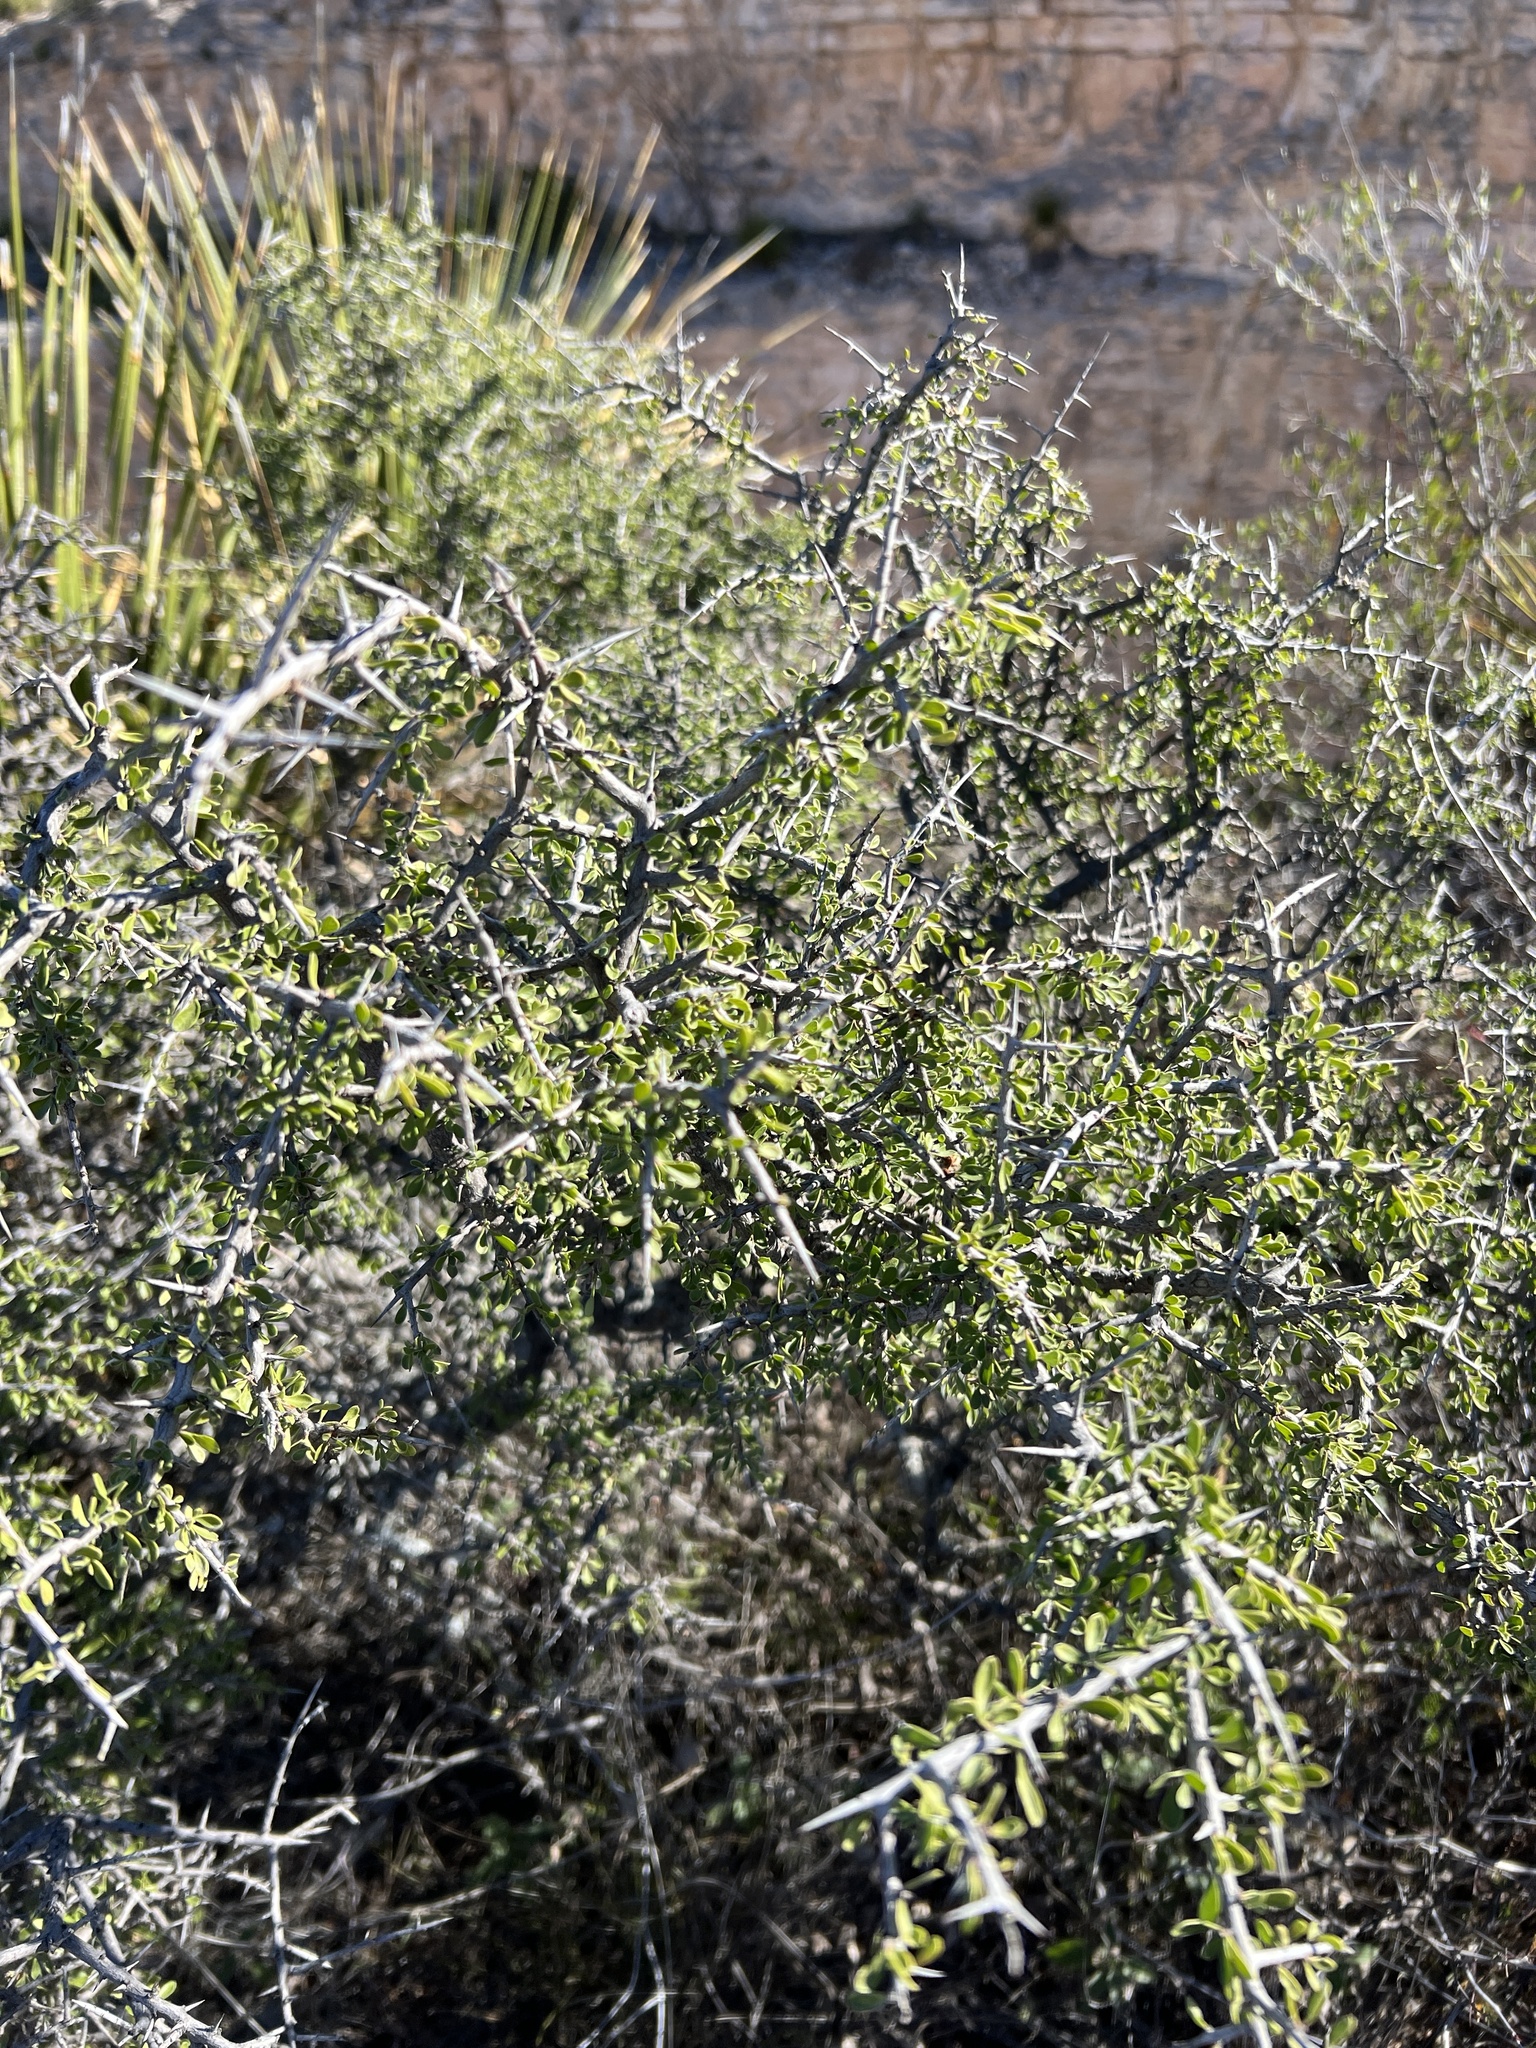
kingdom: Plantae
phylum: Tracheophyta
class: Magnoliopsida
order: Rosales
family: Rhamnaceae
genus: Condalia
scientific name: Condalia viridis
